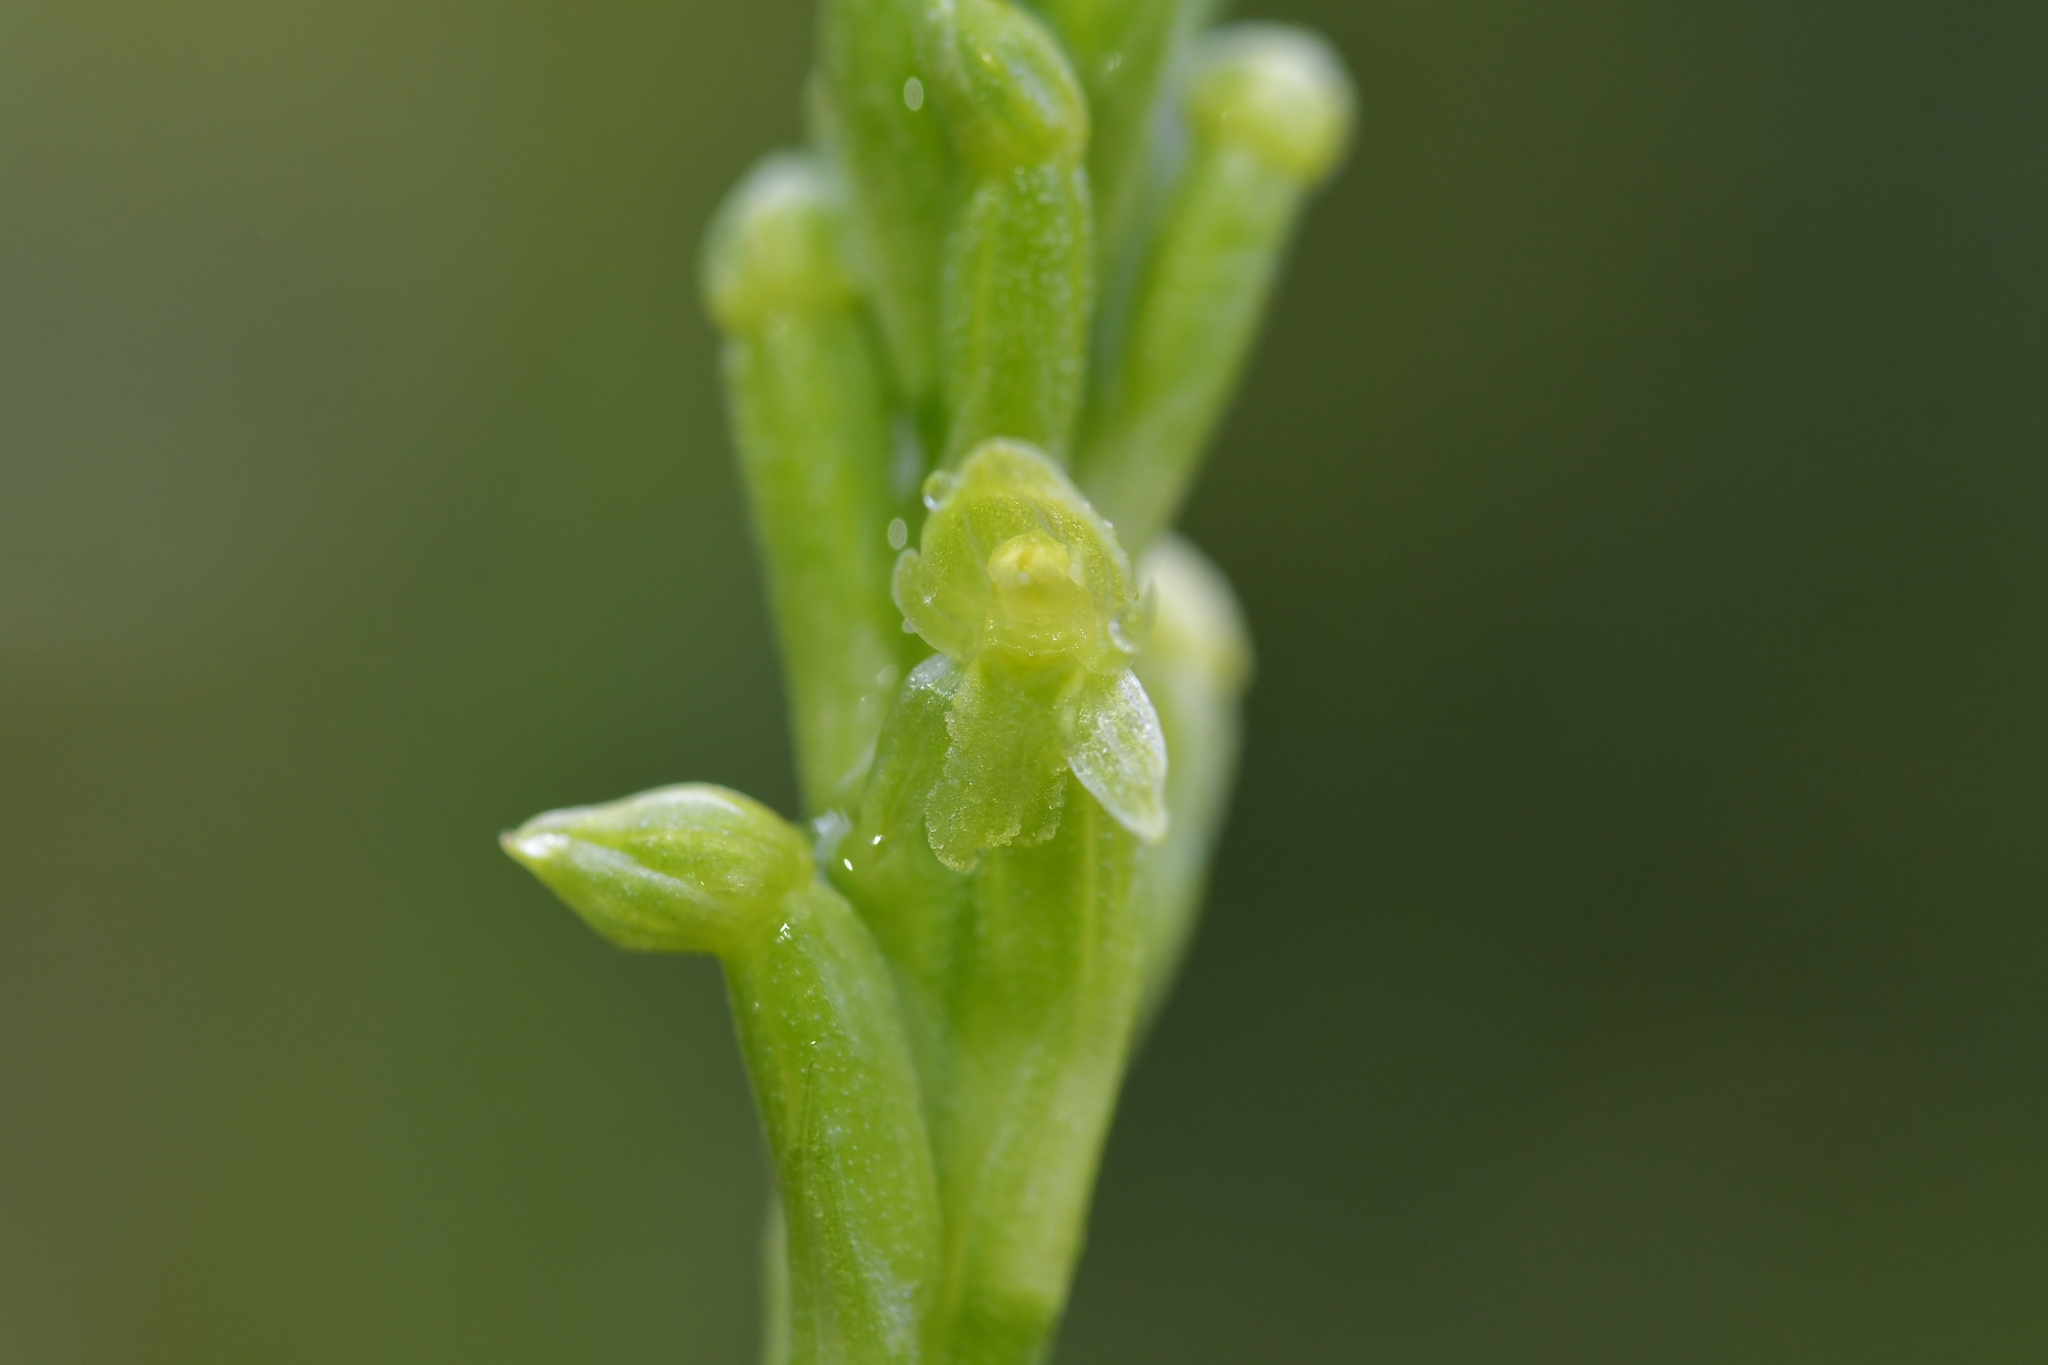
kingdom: Plantae
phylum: Tracheophyta
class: Liliopsida
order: Asparagales
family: Orchidaceae
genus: Microtis
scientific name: Microtis unifolia
